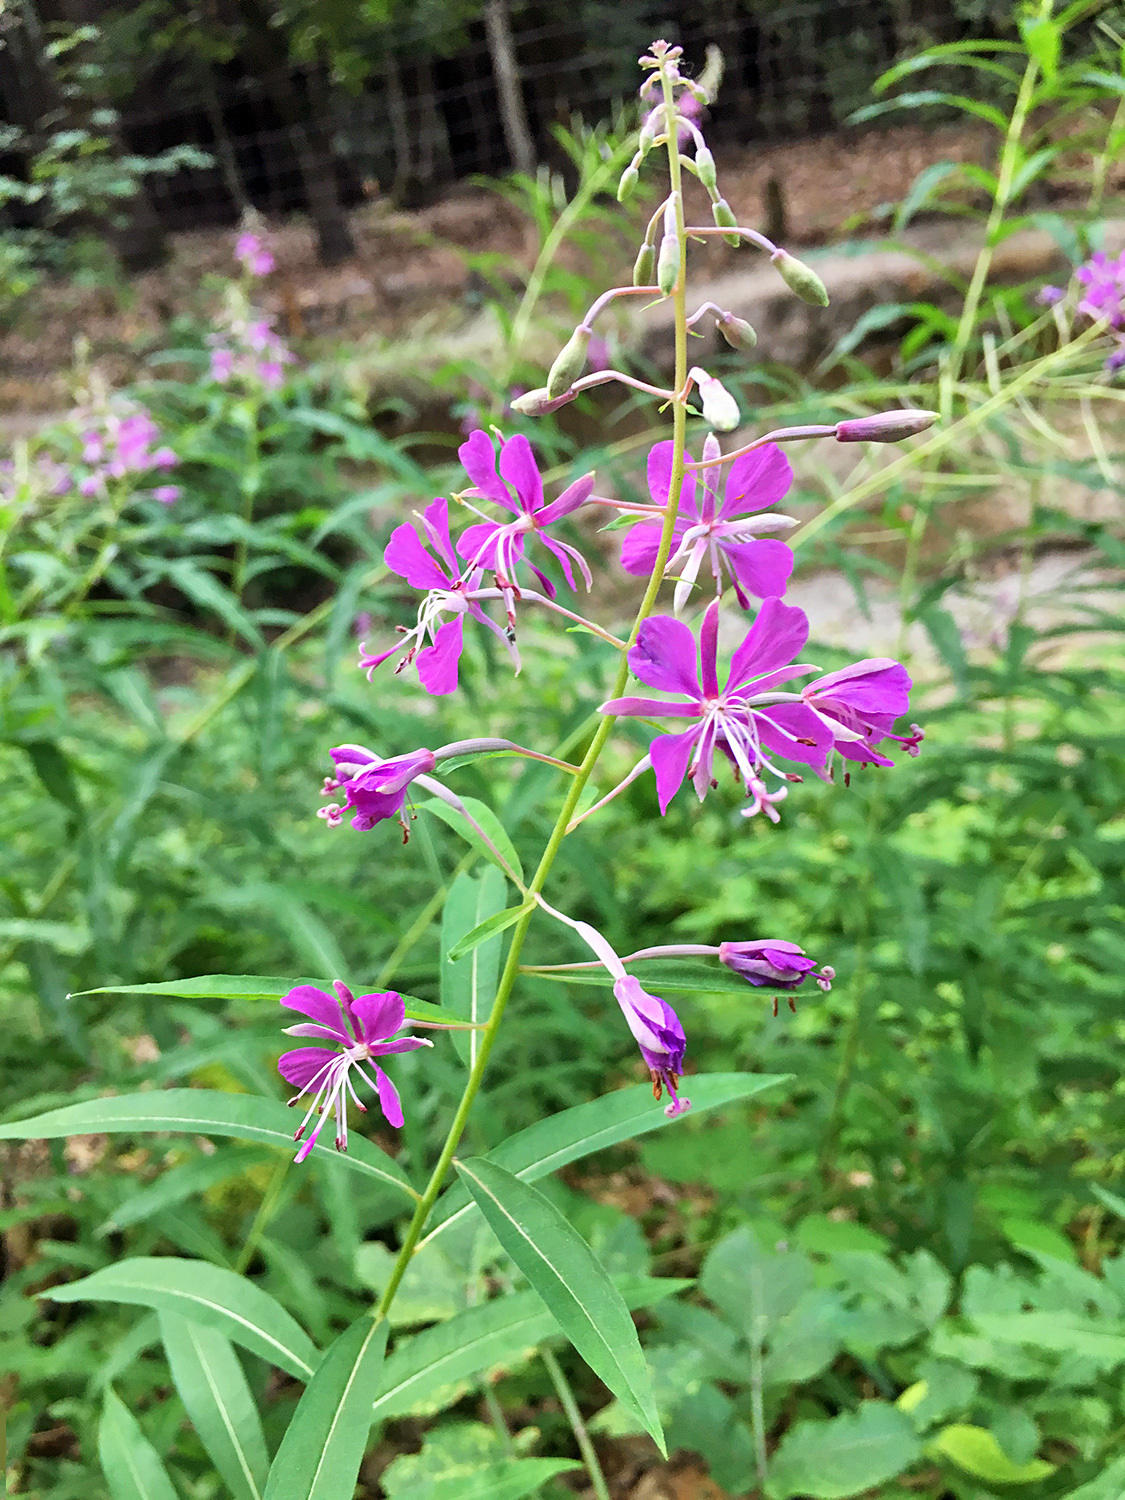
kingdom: Plantae
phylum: Tracheophyta
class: Magnoliopsida
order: Myrtales
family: Onagraceae
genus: Chamaenerion
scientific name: Chamaenerion angustifolium
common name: Fireweed
